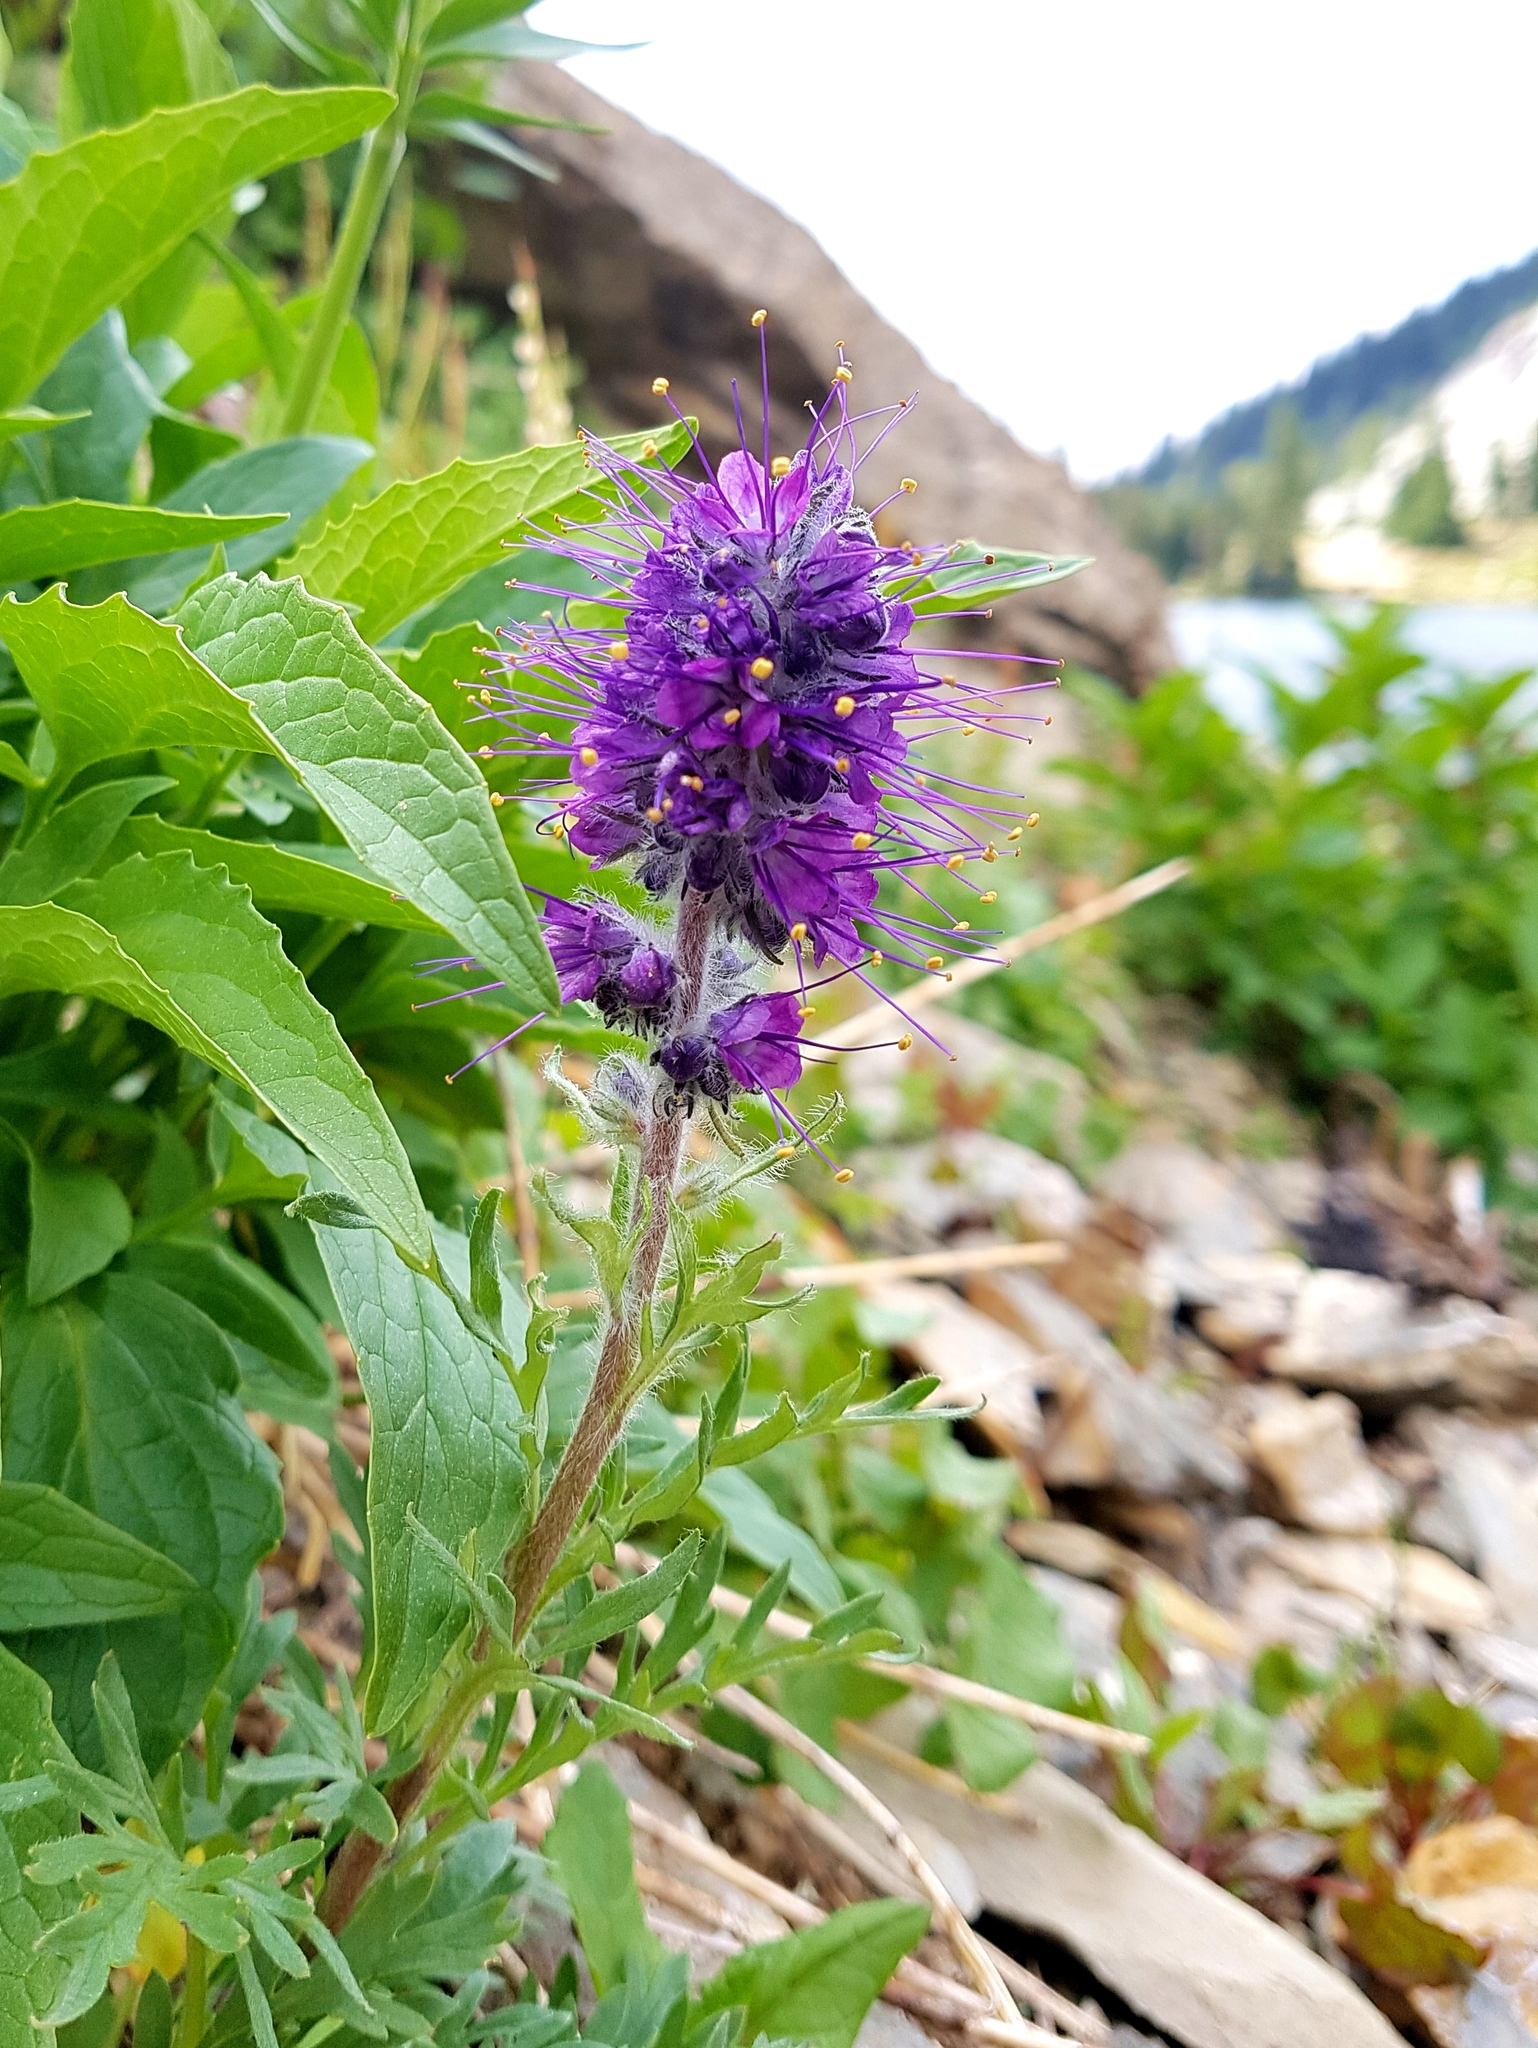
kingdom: Plantae
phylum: Tracheophyta
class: Magnoliopsida
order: Boraginales
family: Hydrophyllaceae
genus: Phacelia
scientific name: Phacelia sericea
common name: Silky phacelia
